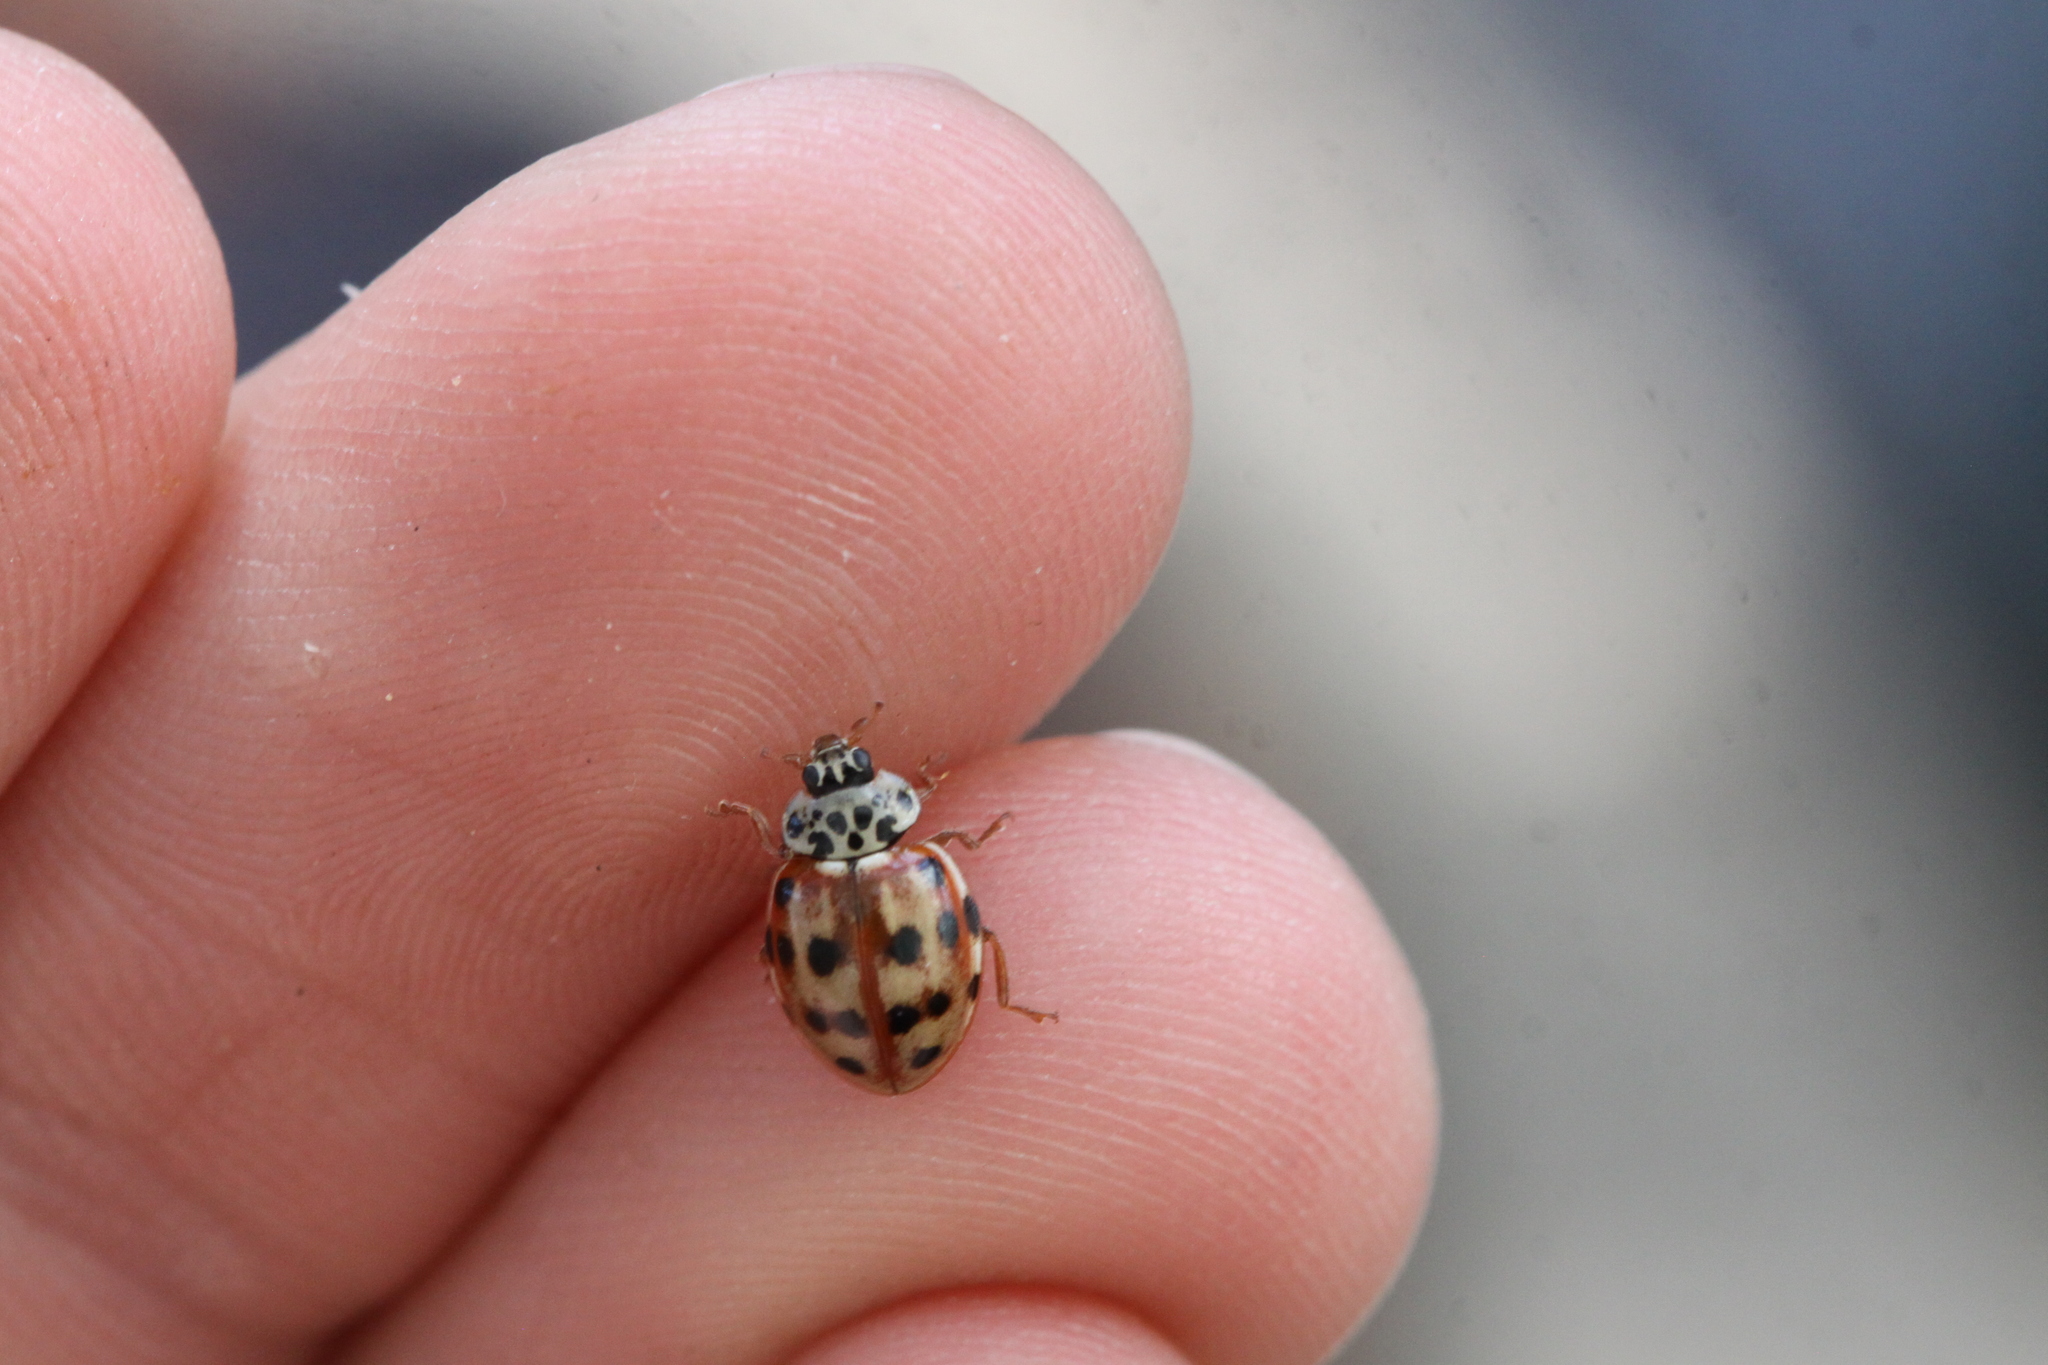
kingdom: Animalia
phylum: Arthropoda
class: Insecta
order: Coleoptera
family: Coccinellidae
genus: Harmonia
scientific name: Harmonia quadripunctata
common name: Cream-streaked ladybird
